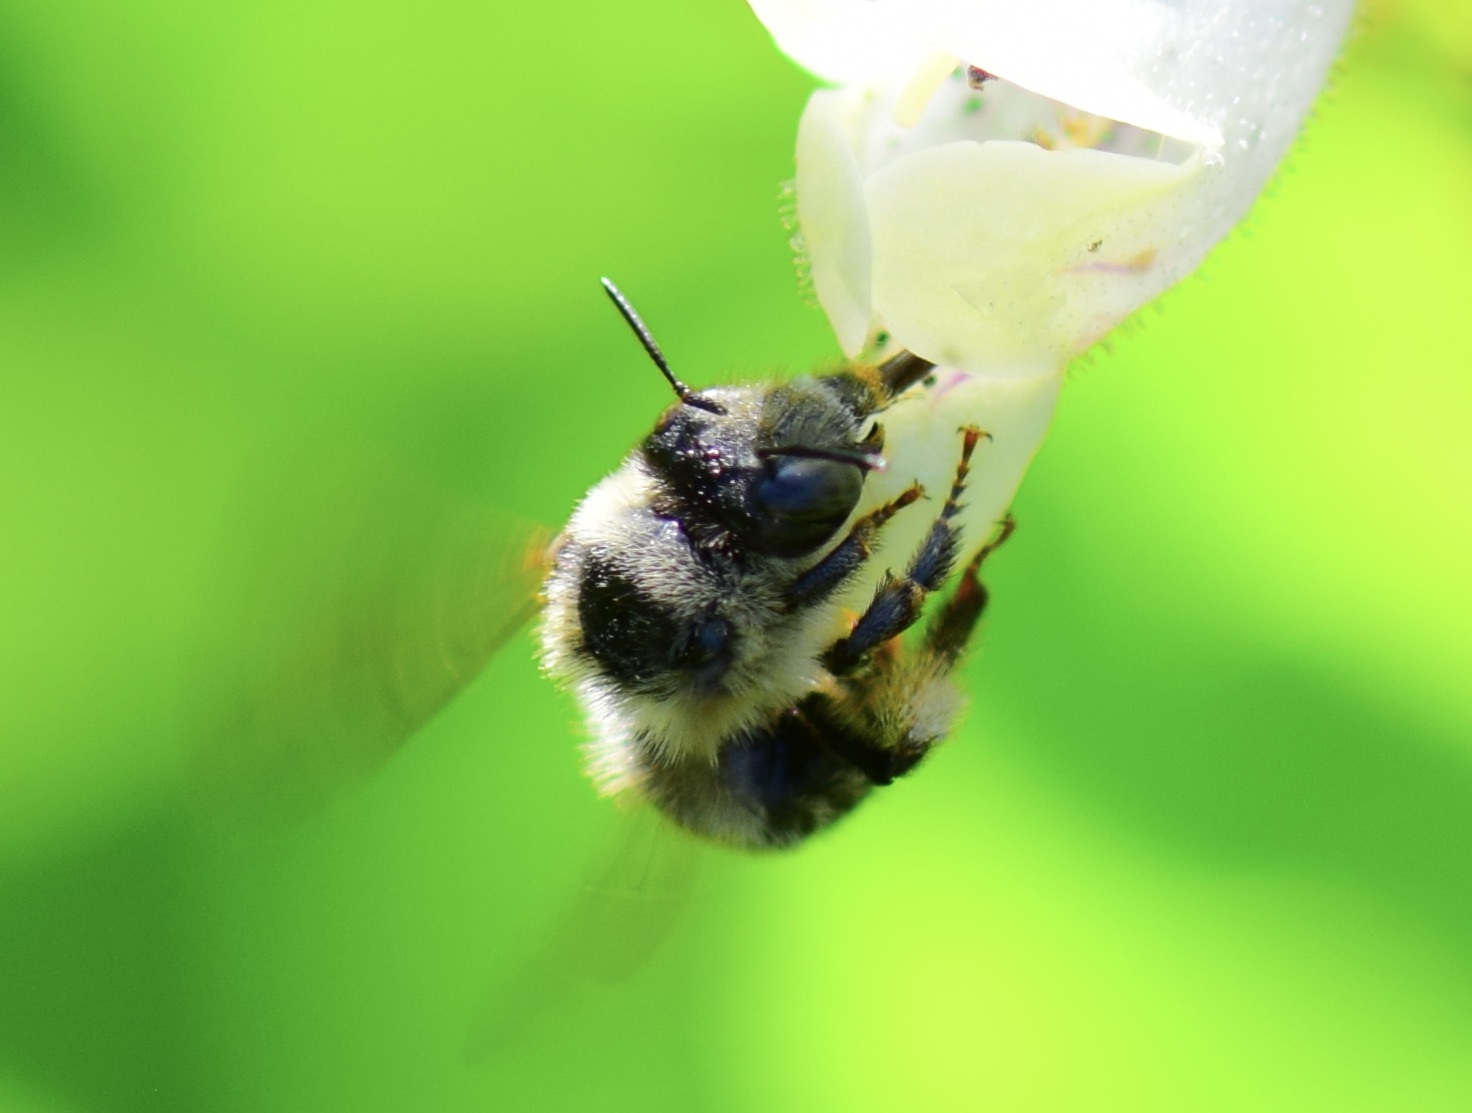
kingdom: Animalia
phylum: Arthropoda
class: Insecta
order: Hymenoptera
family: Apidae
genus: Anthophora
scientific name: Anthophora terminalis
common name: Orange-tipped wood-digger bee
